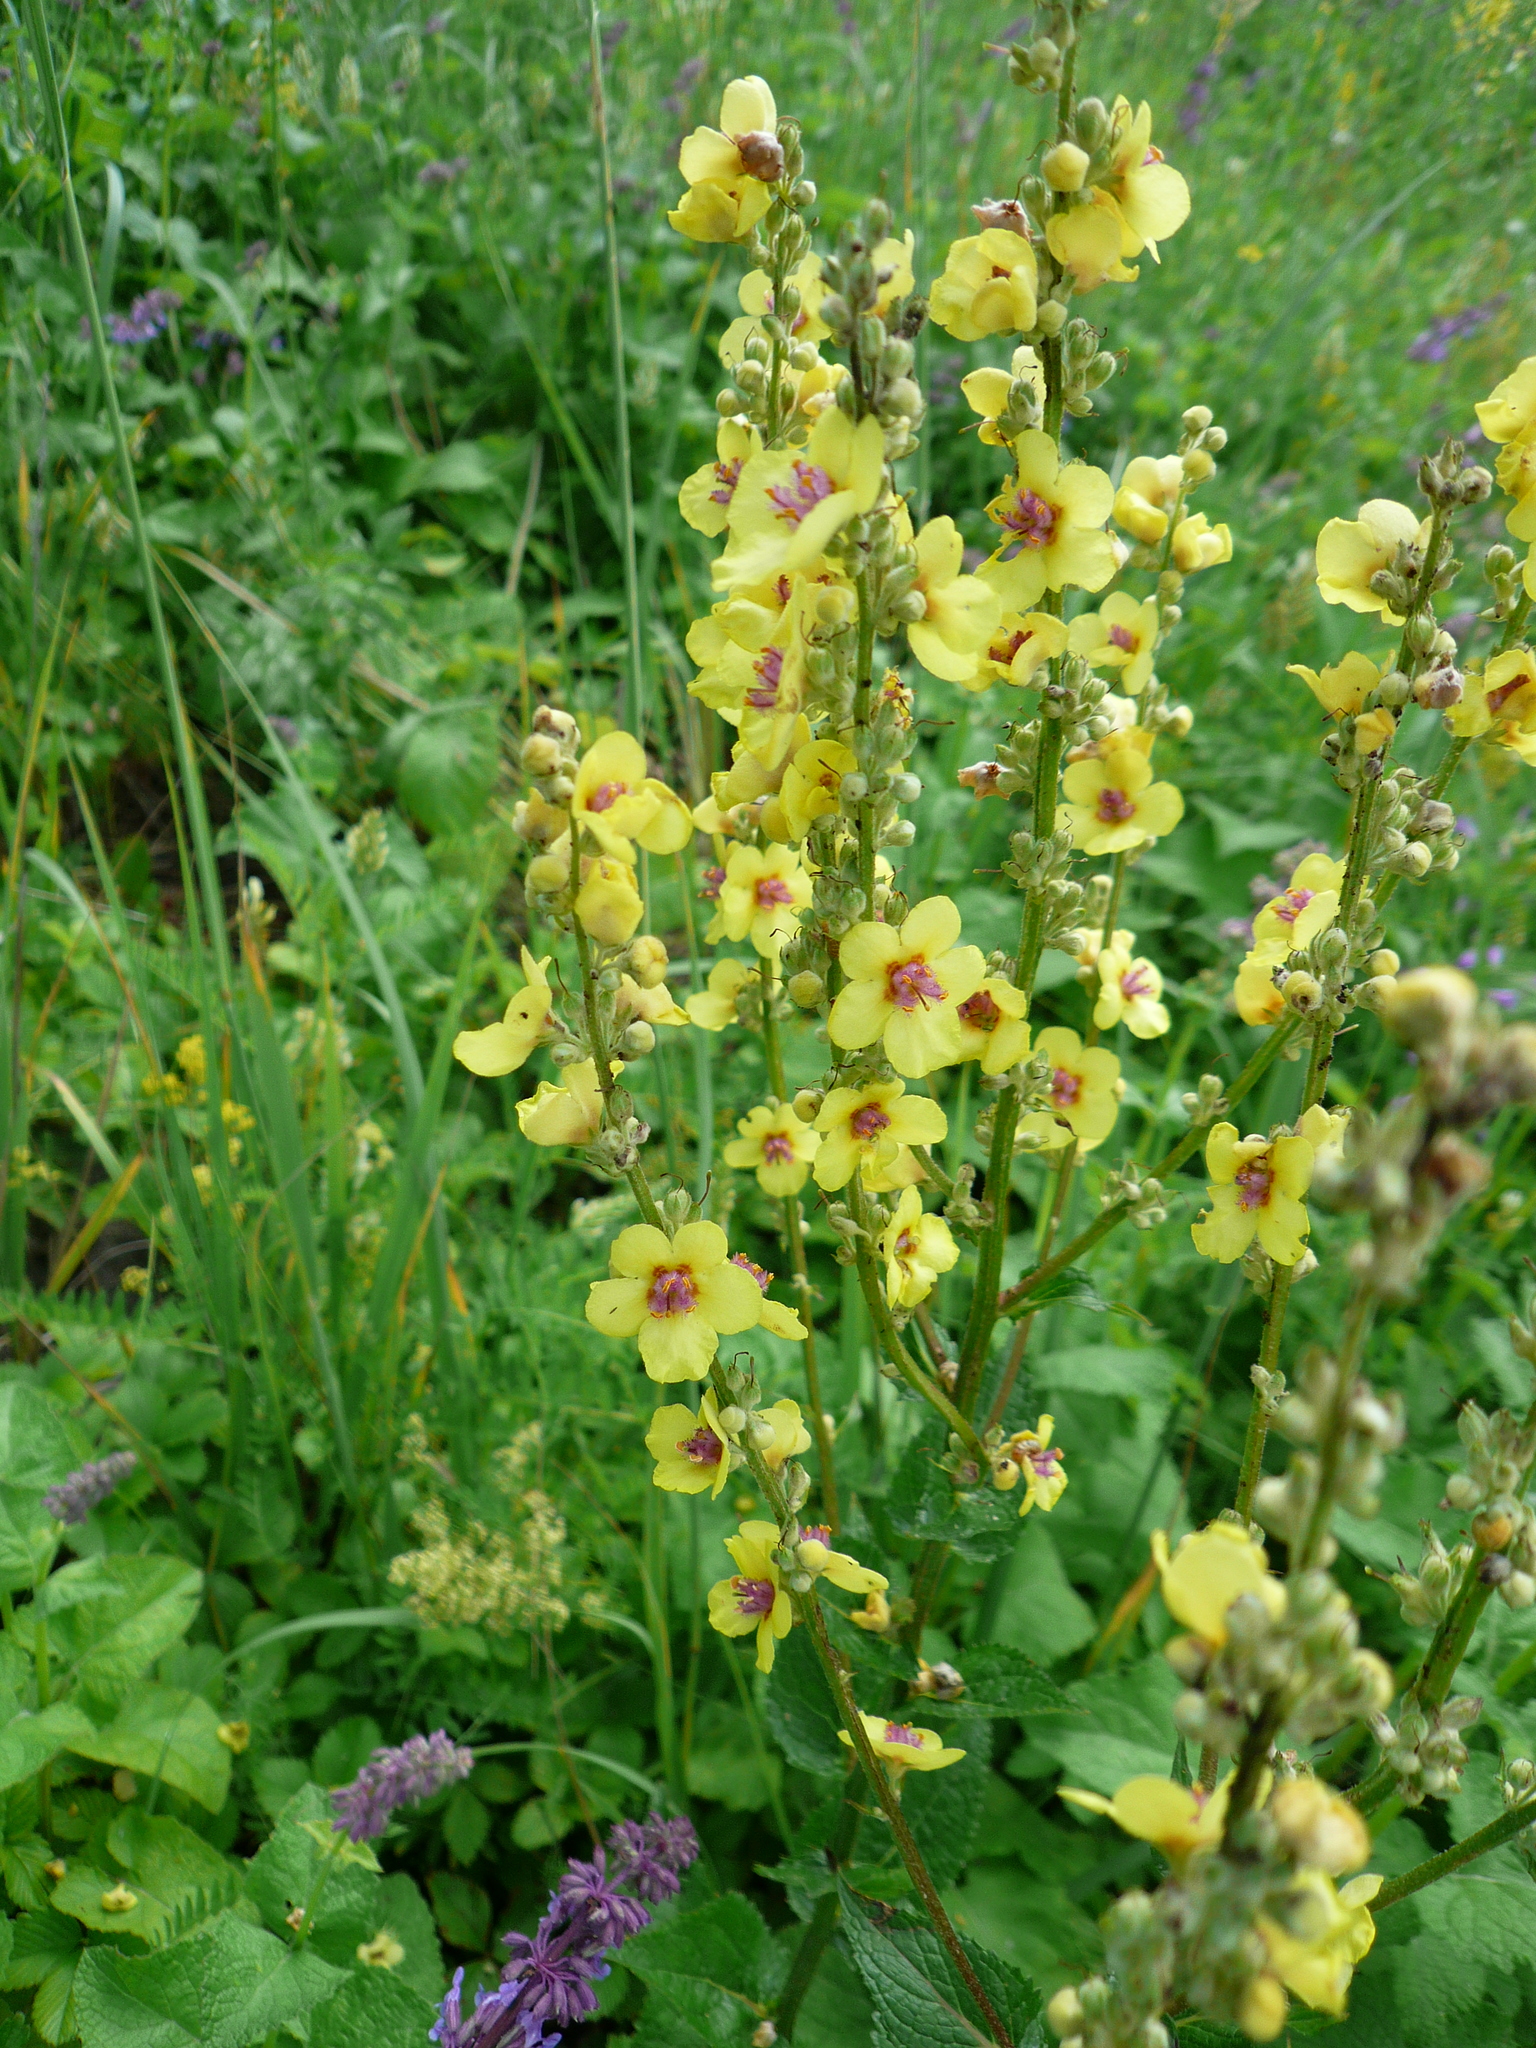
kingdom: Plantae
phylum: Tracheophyta
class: Magnoliopsida
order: Lamiales
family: Scrophulariaceae
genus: Verbascum
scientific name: Verbascum chaixii
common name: Nettle-leaved mullein
